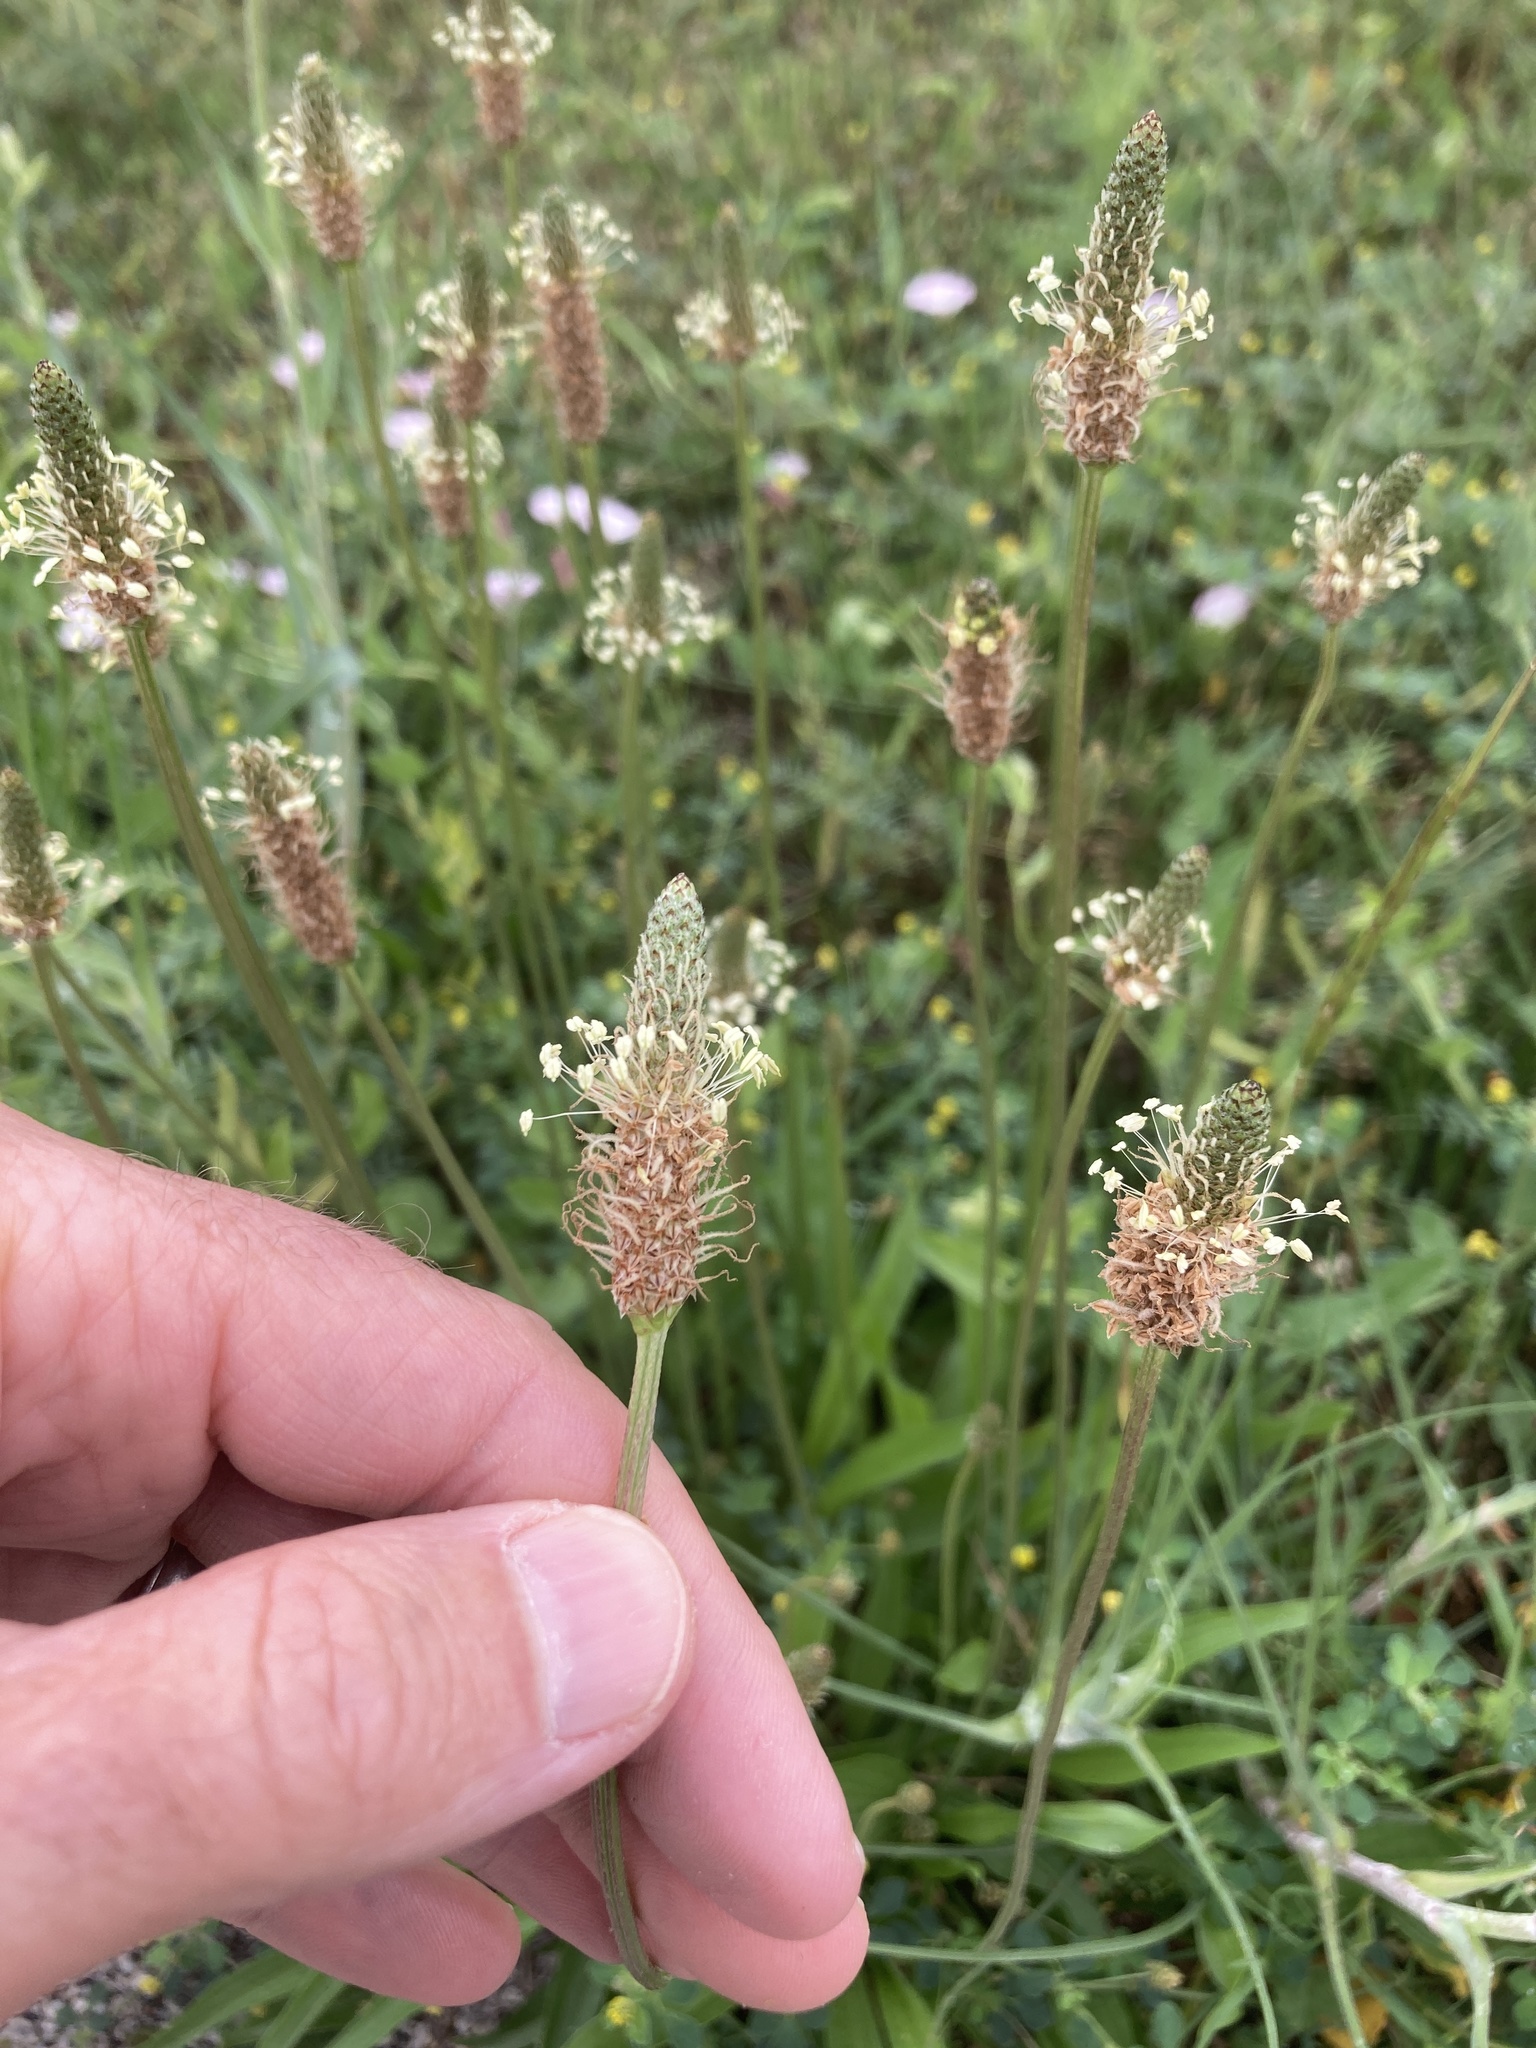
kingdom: Plantae
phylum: Tracheophyta
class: Magnoliopsida
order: Lamiales
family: Plantaginaceae
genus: Plantago
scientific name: Plantago lanceolata
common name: Ribwort plantain
